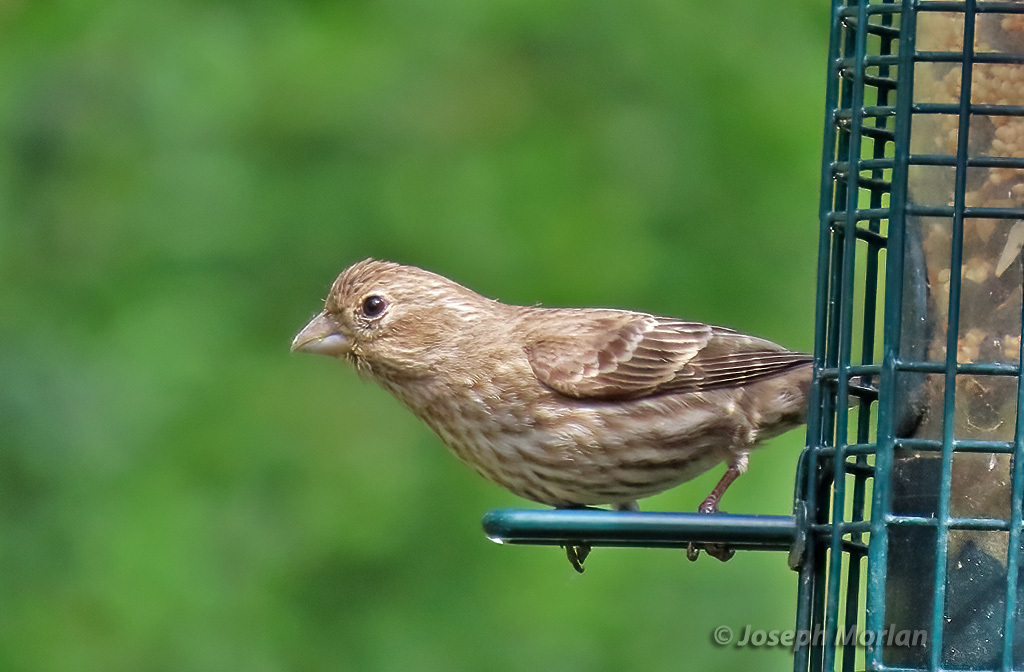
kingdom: Animalia
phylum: Chordata
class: Aves
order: Passeriformes
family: Fringillidae
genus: Haemorhous
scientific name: Haemorhous mexicanus
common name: House finch
